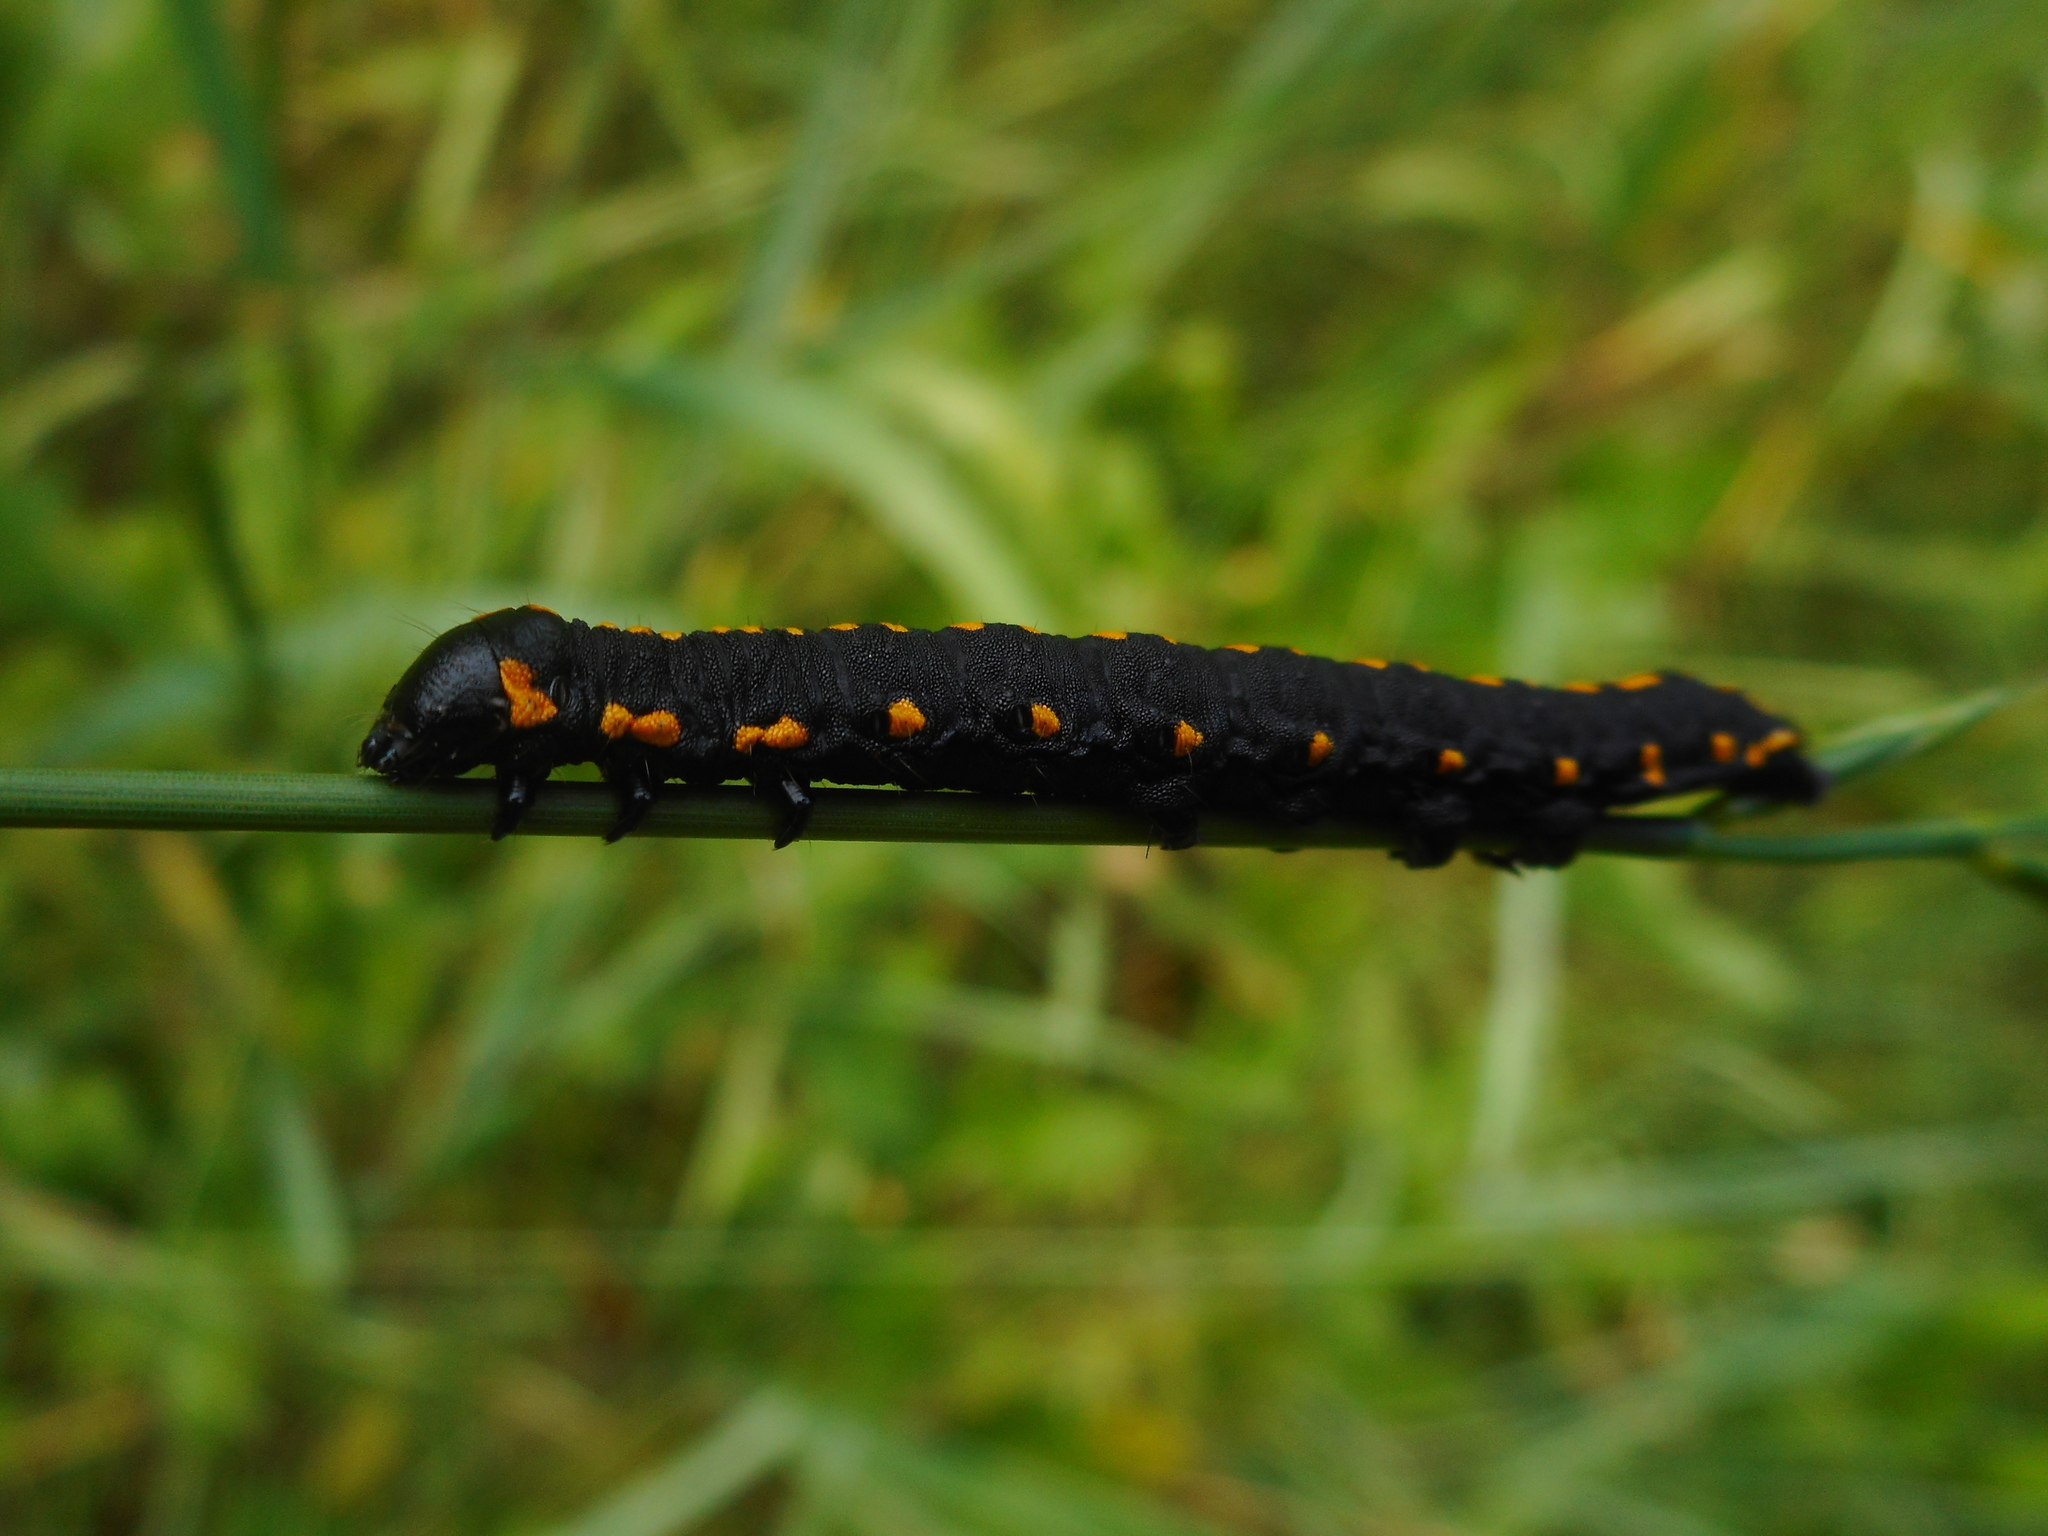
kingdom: Animalia
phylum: Arthropoda
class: Insecta
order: Lepidoptera
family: Noctuidae
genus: Cucullia
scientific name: Cucullia lucifuga
